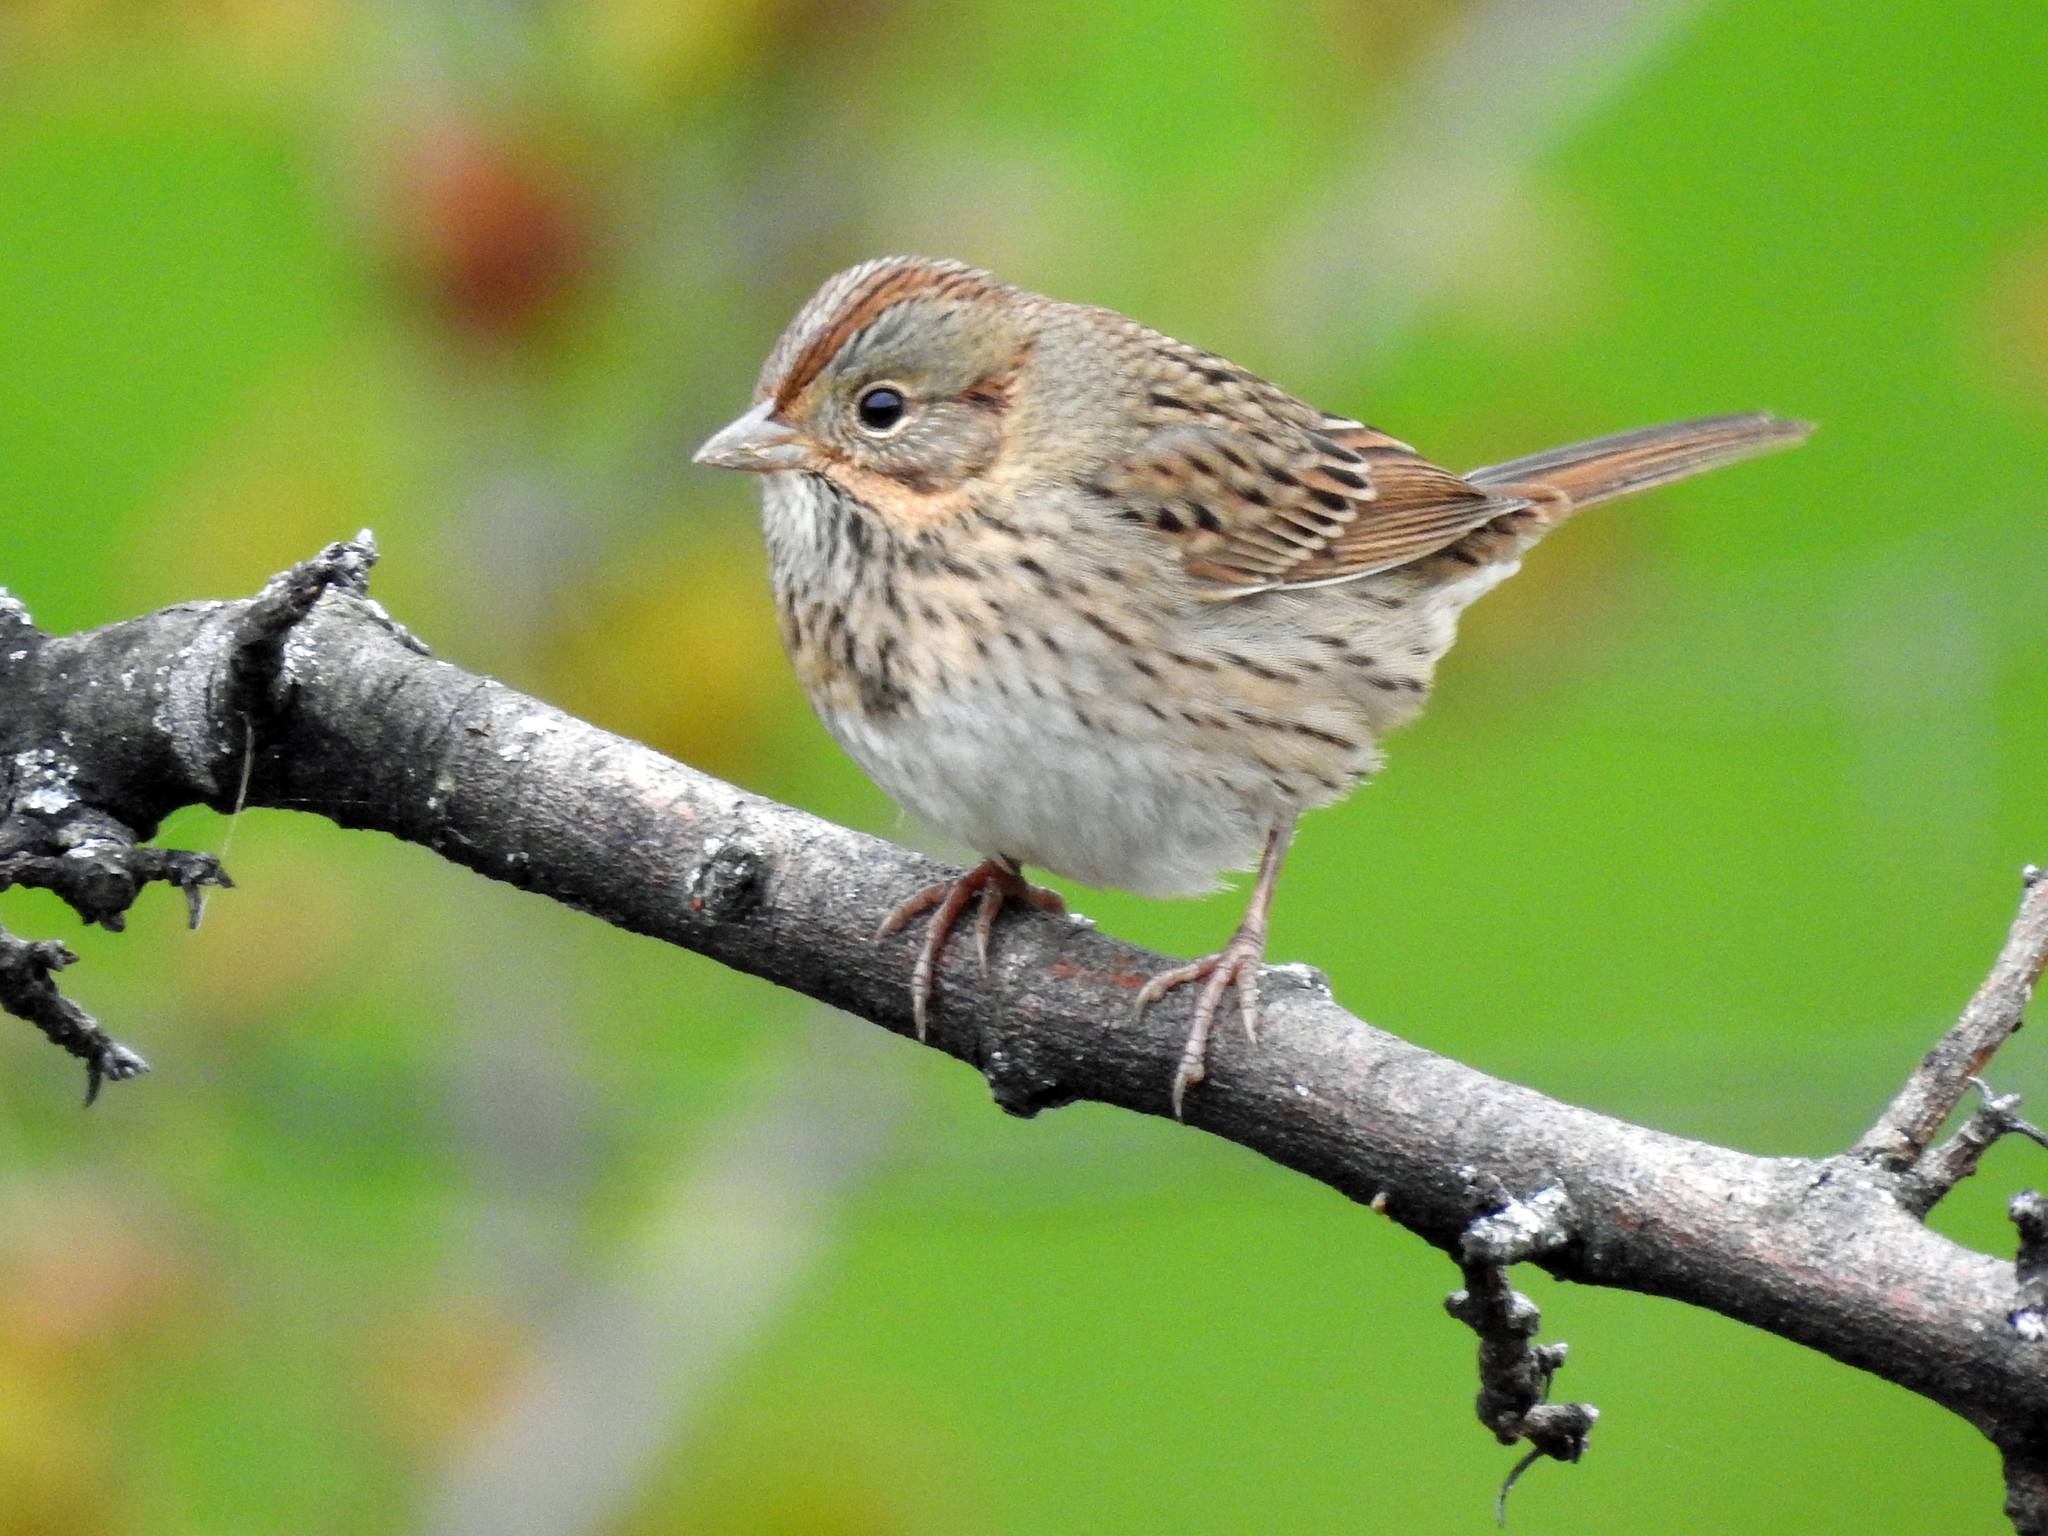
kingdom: Animalia
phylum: Chordata
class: Aves
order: Passeriformes
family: Passerellidae
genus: Melospiza
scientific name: Melospiza lincolnii
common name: Lincoln's sparrow
